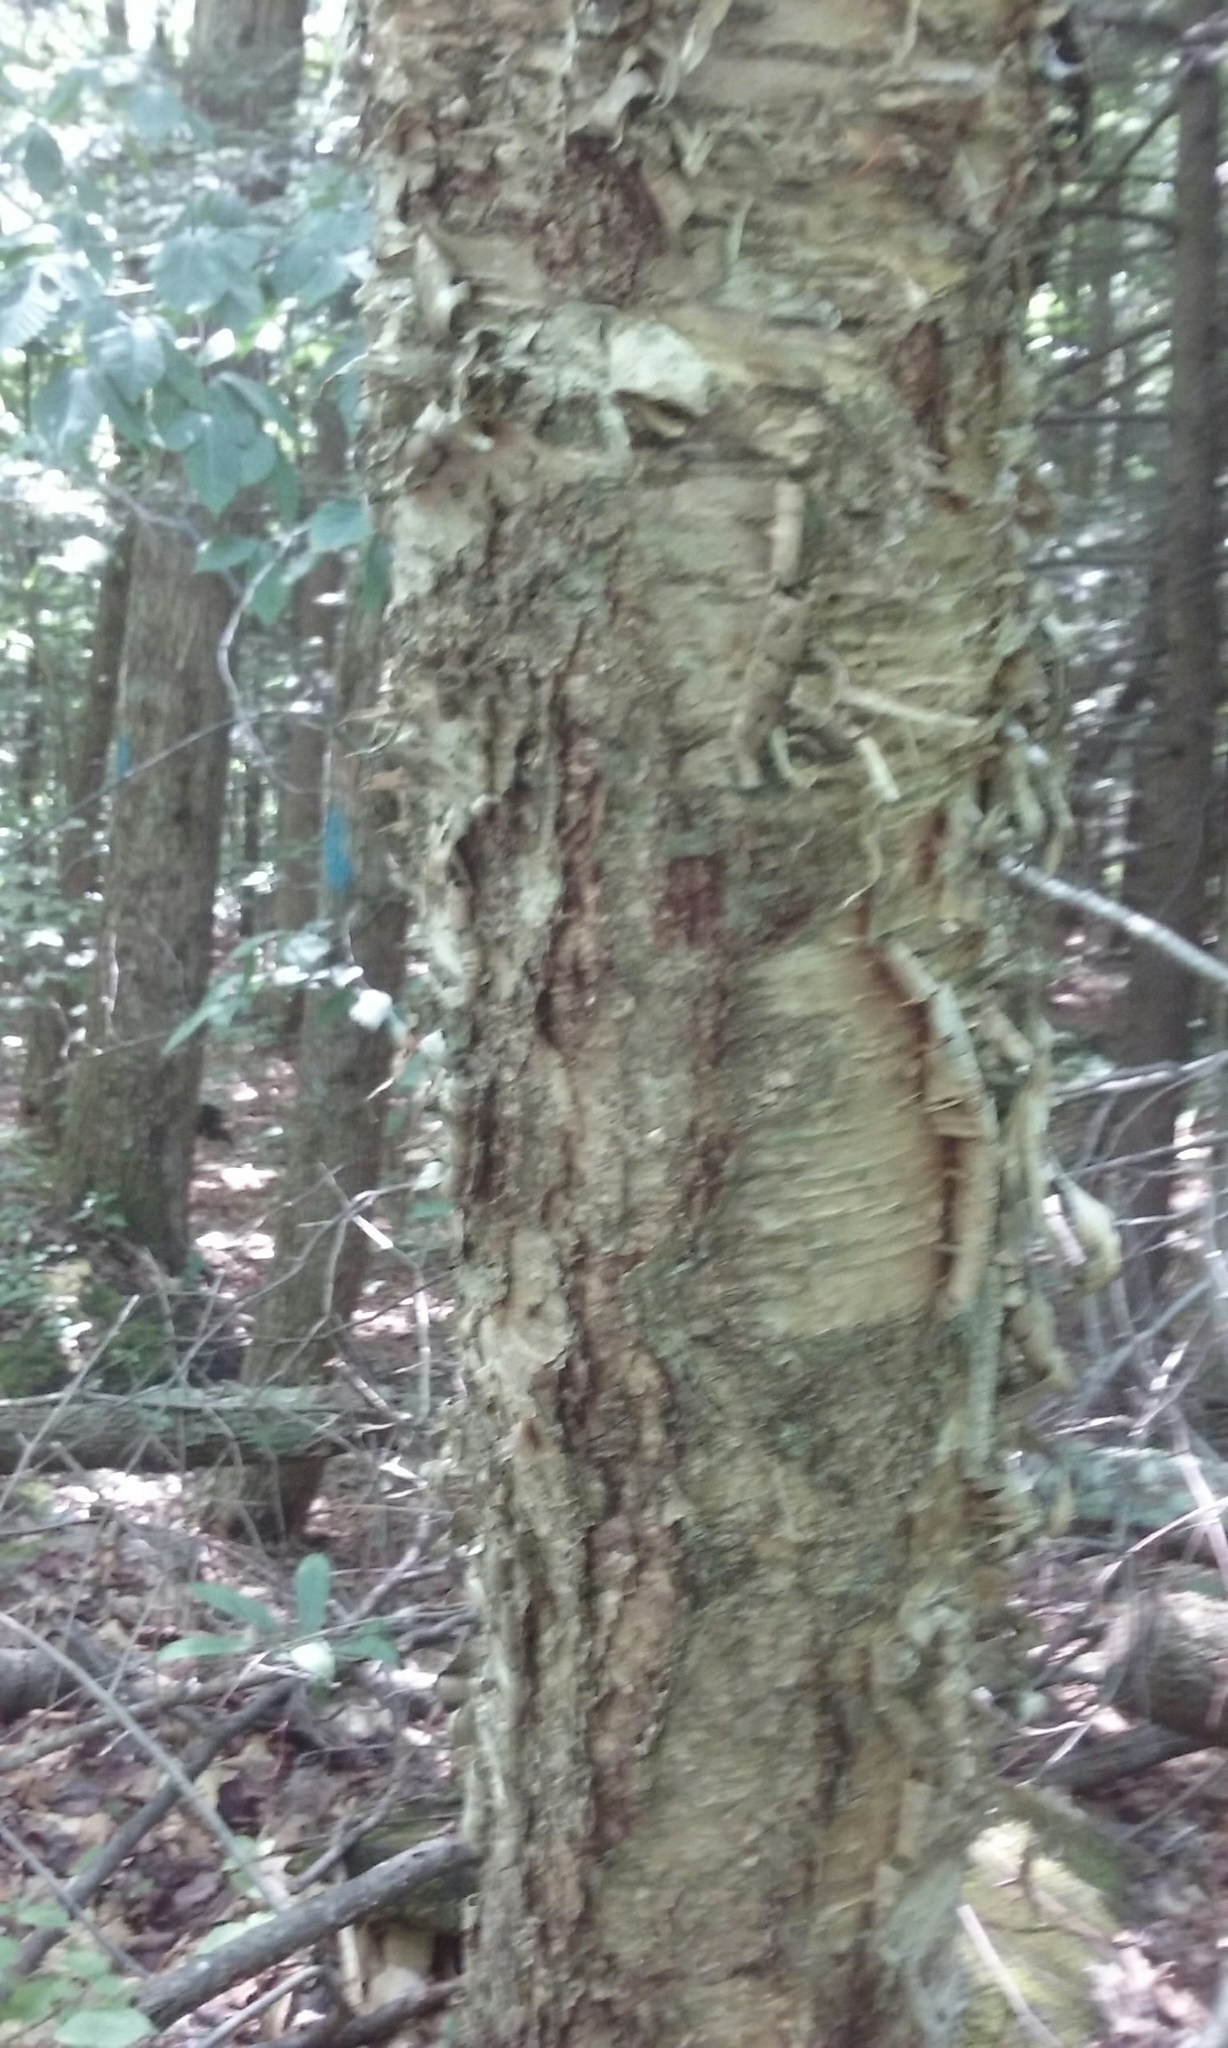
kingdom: Plantae
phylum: Tracheophyta
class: Magnoliopsida
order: Fagales
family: Betulaceae
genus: Betula
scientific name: Betula alleghaniensis
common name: Yellow birch
